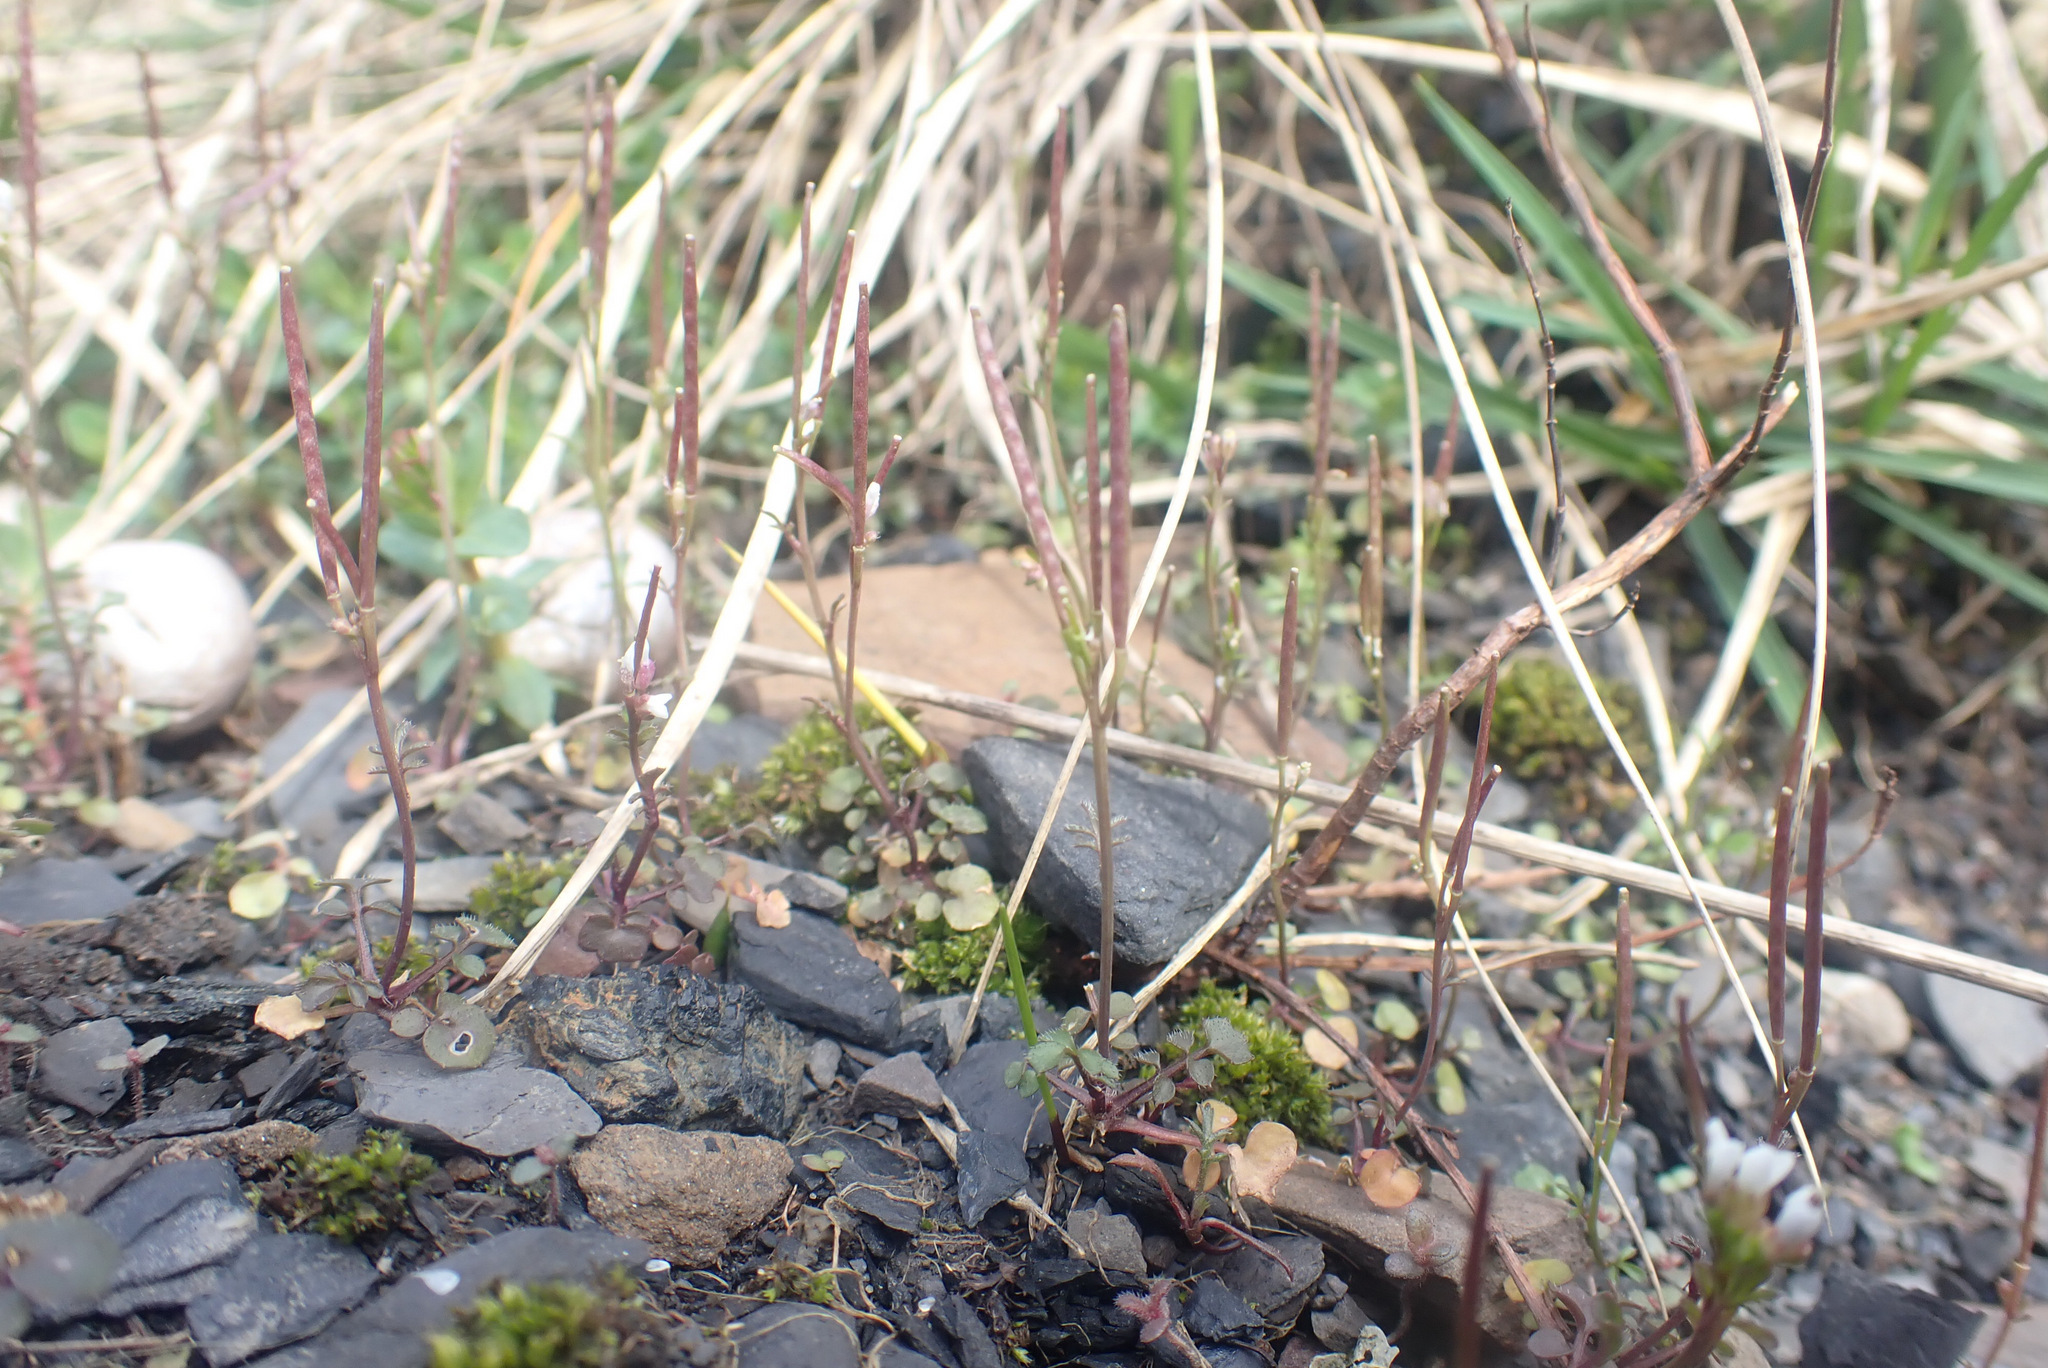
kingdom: Plantae
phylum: Tracheophyta
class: Magnoliopsida
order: Brassicales
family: Brassicaceae
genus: Cardamine
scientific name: Cardamine hirsuta
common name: Hairy bittercress
